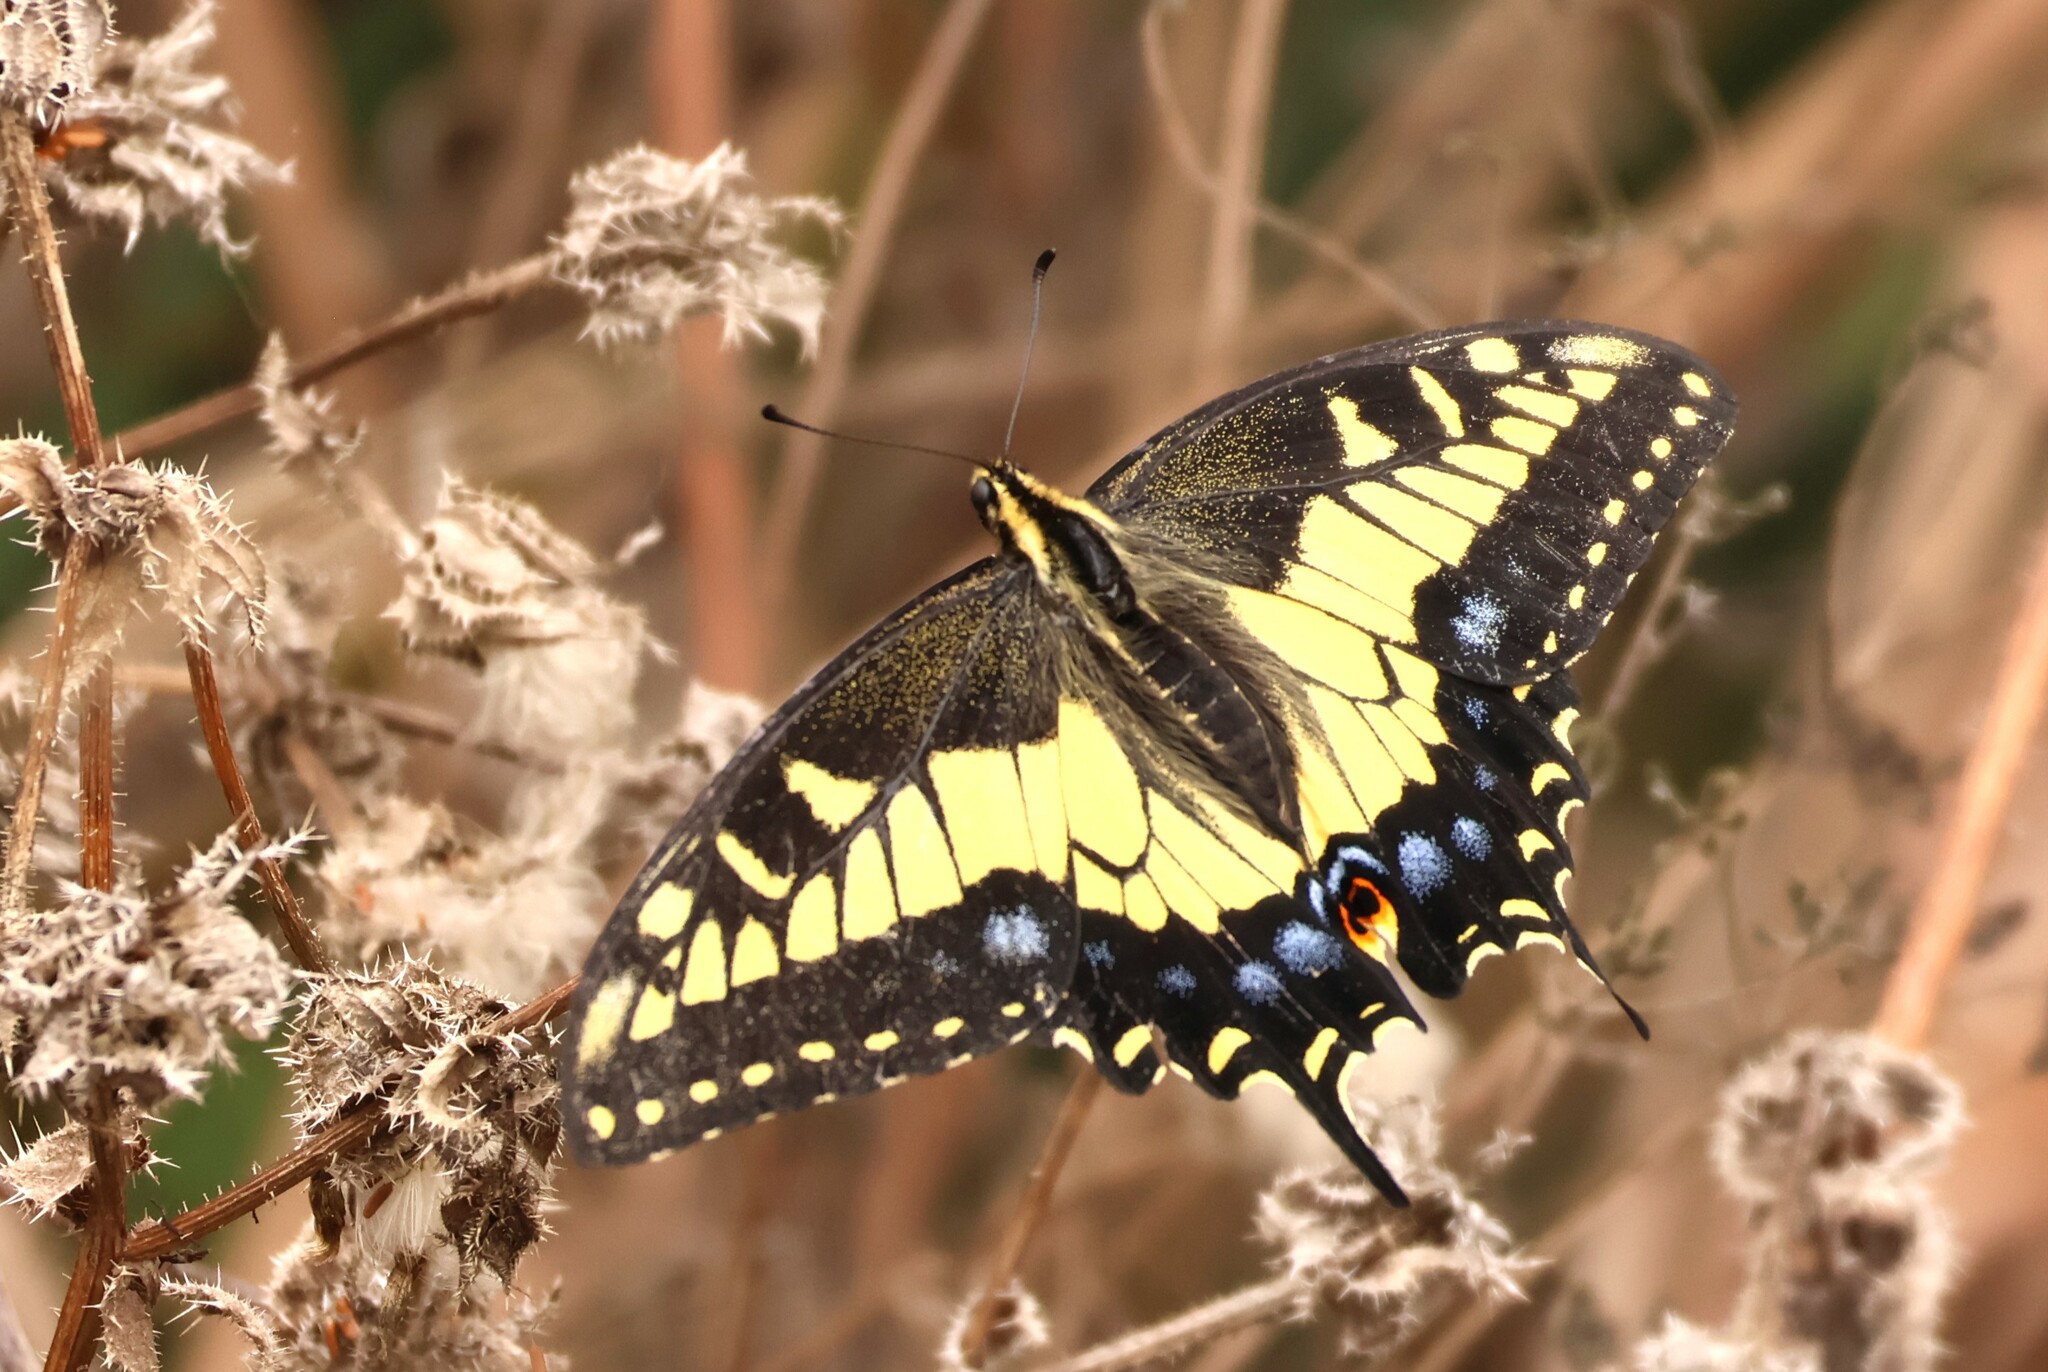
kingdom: Animalia
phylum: Arthropoda
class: Insecta
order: Lepidoptera
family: Papilionidae
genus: Papilio
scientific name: Papilio zelicaon
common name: Anise swallowtail
